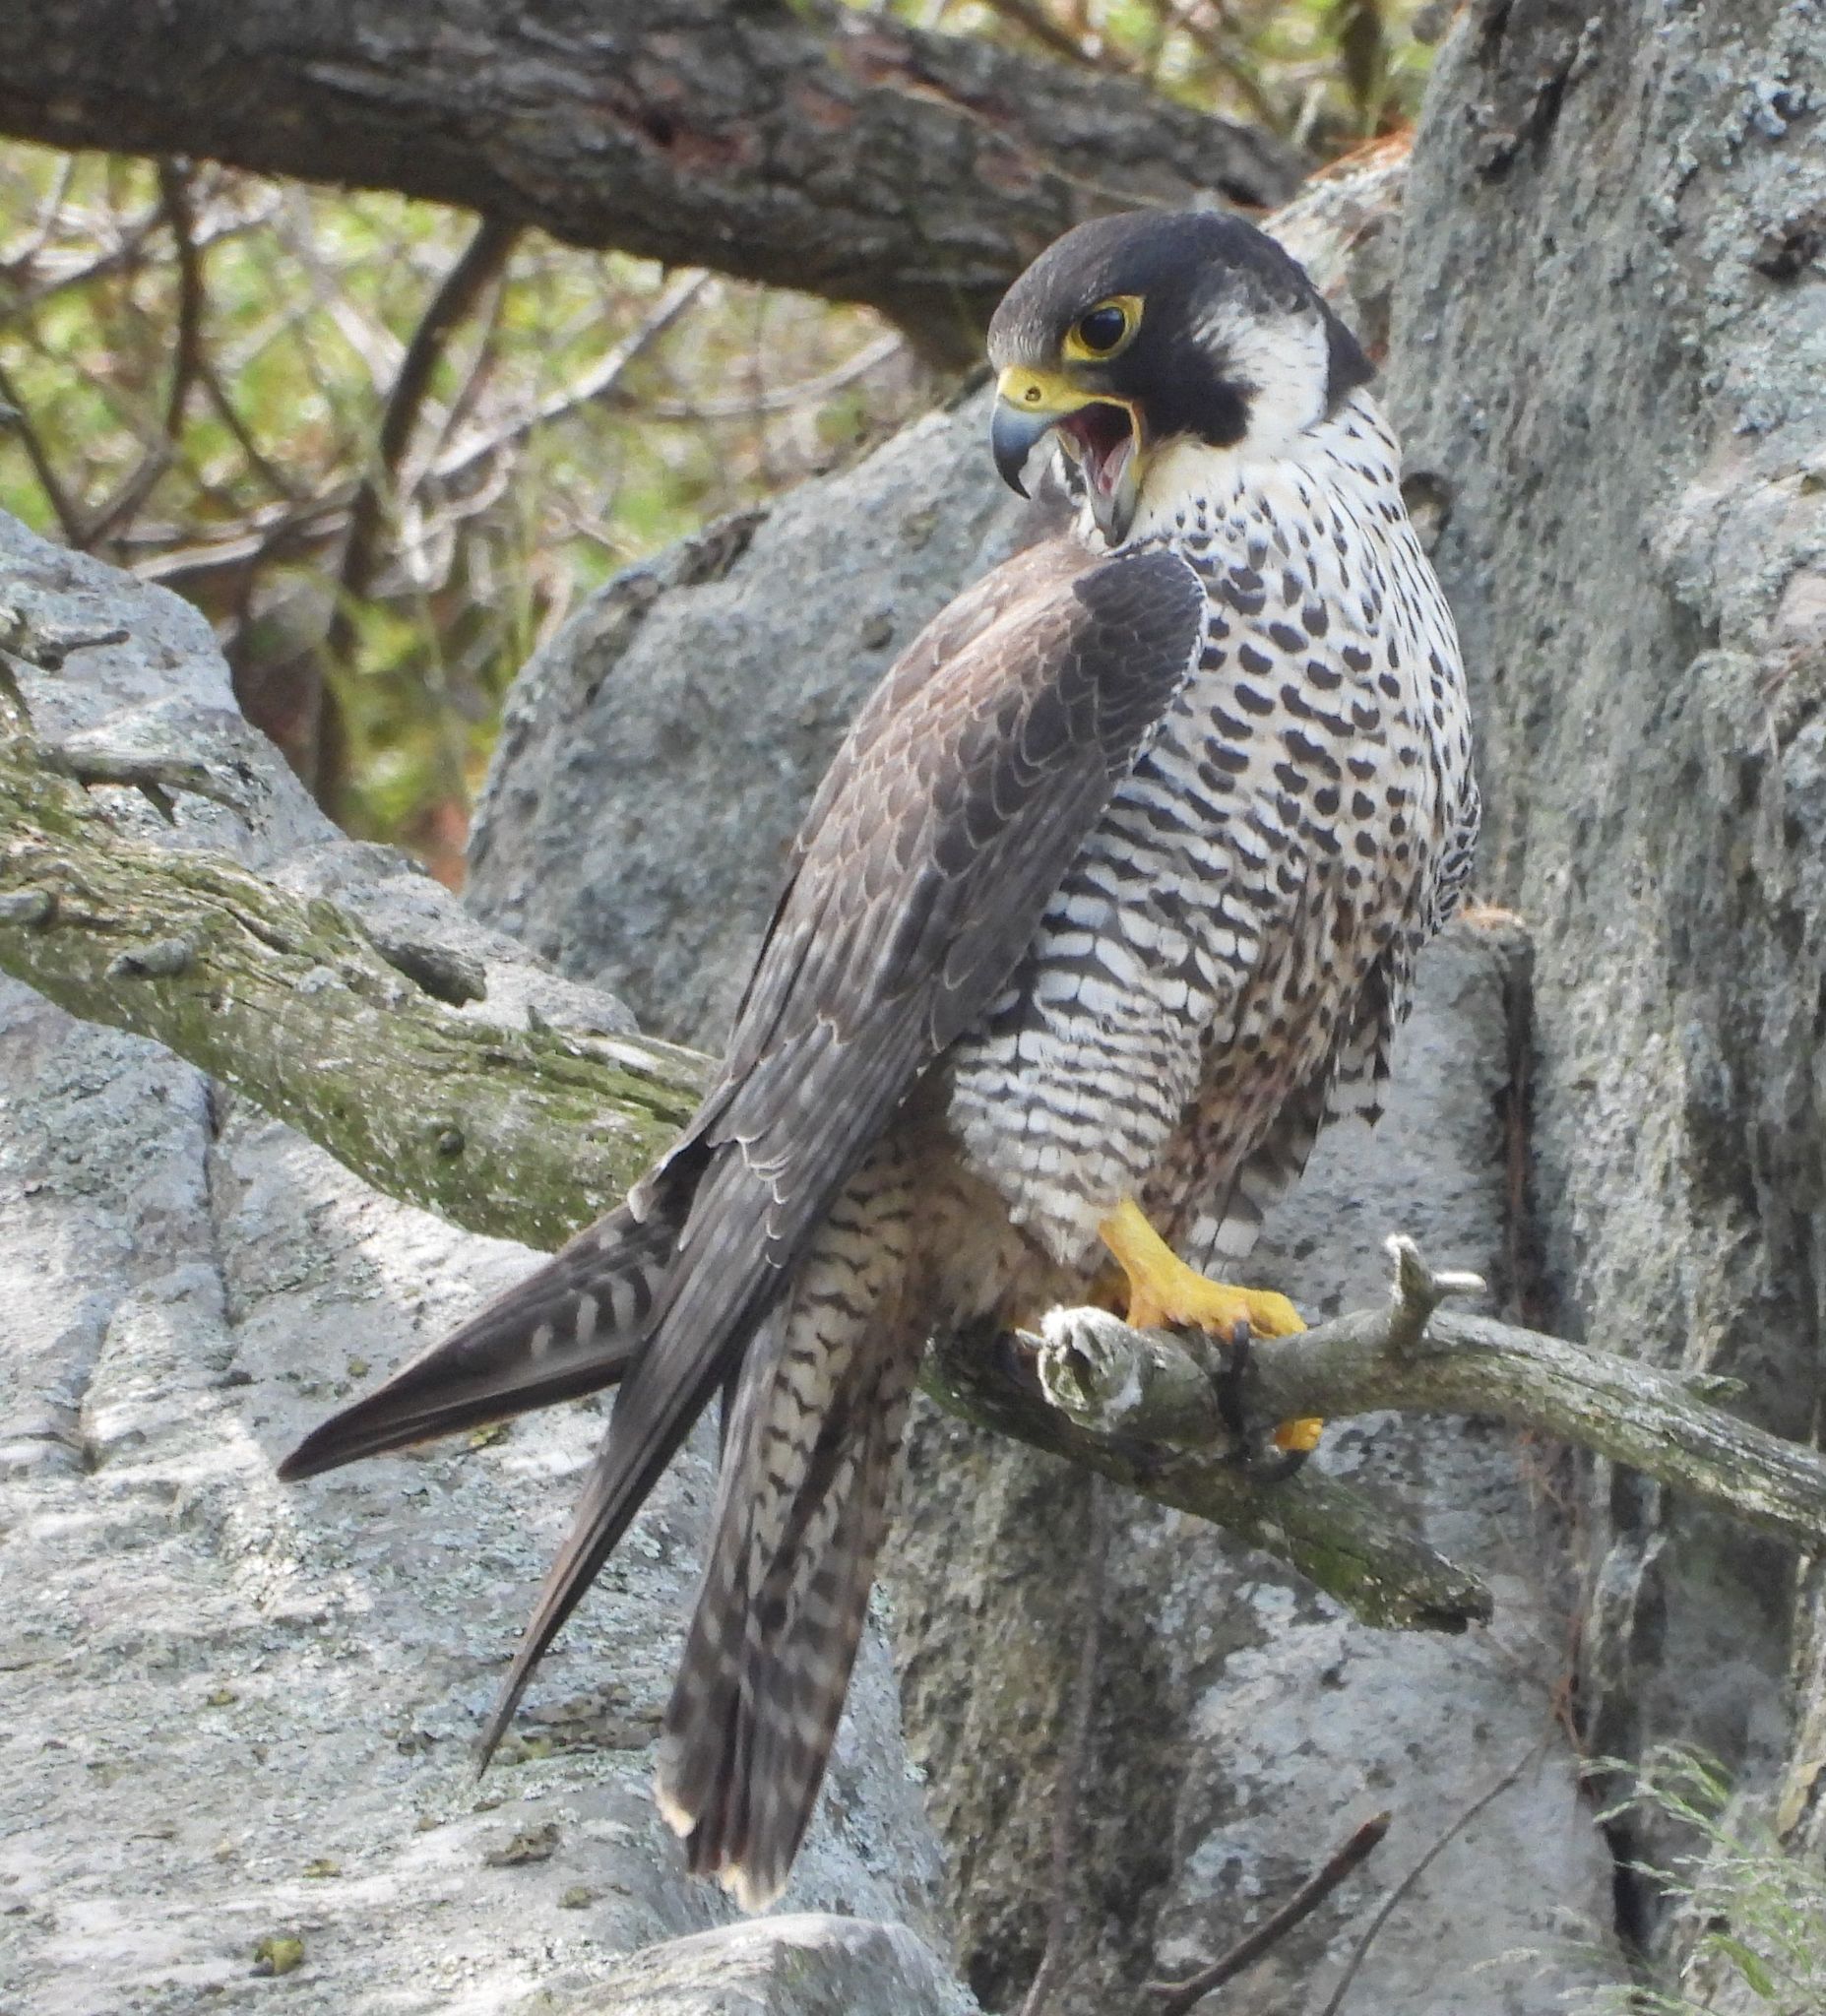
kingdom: Animalia
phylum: Chordata
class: Aves
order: Falconiformes
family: Falconidae
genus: Falco
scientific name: Falco peregrinus
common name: Peregrine falcon
